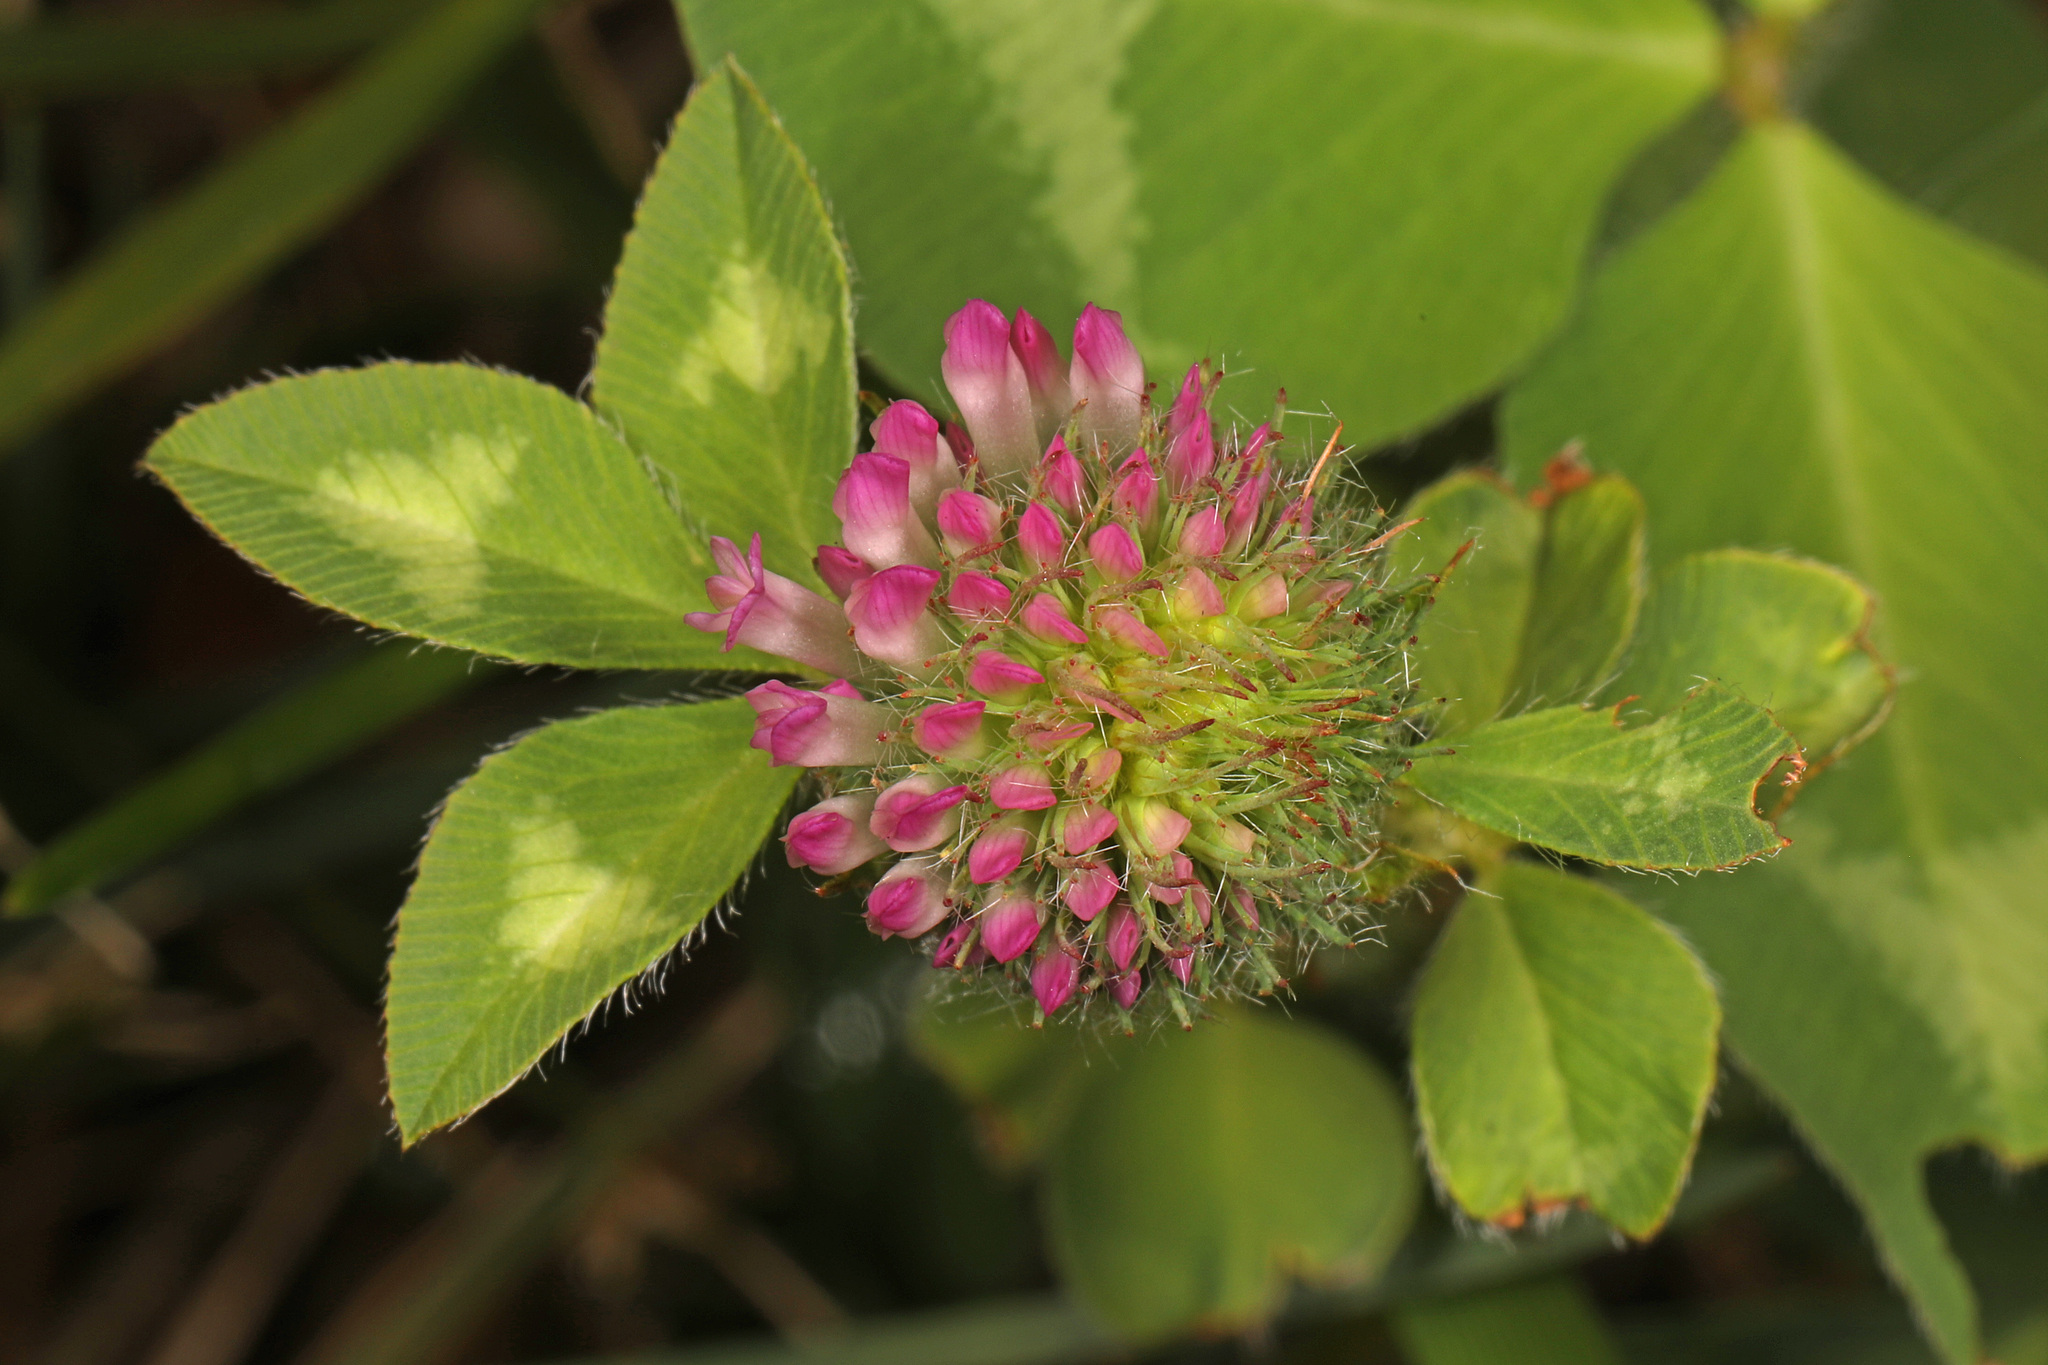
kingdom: Plantae
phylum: Tracheophyta
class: Magnoliopsida
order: Fabales
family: Fabaceae
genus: Trifolium
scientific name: Trifolium pratense
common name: Red clover
